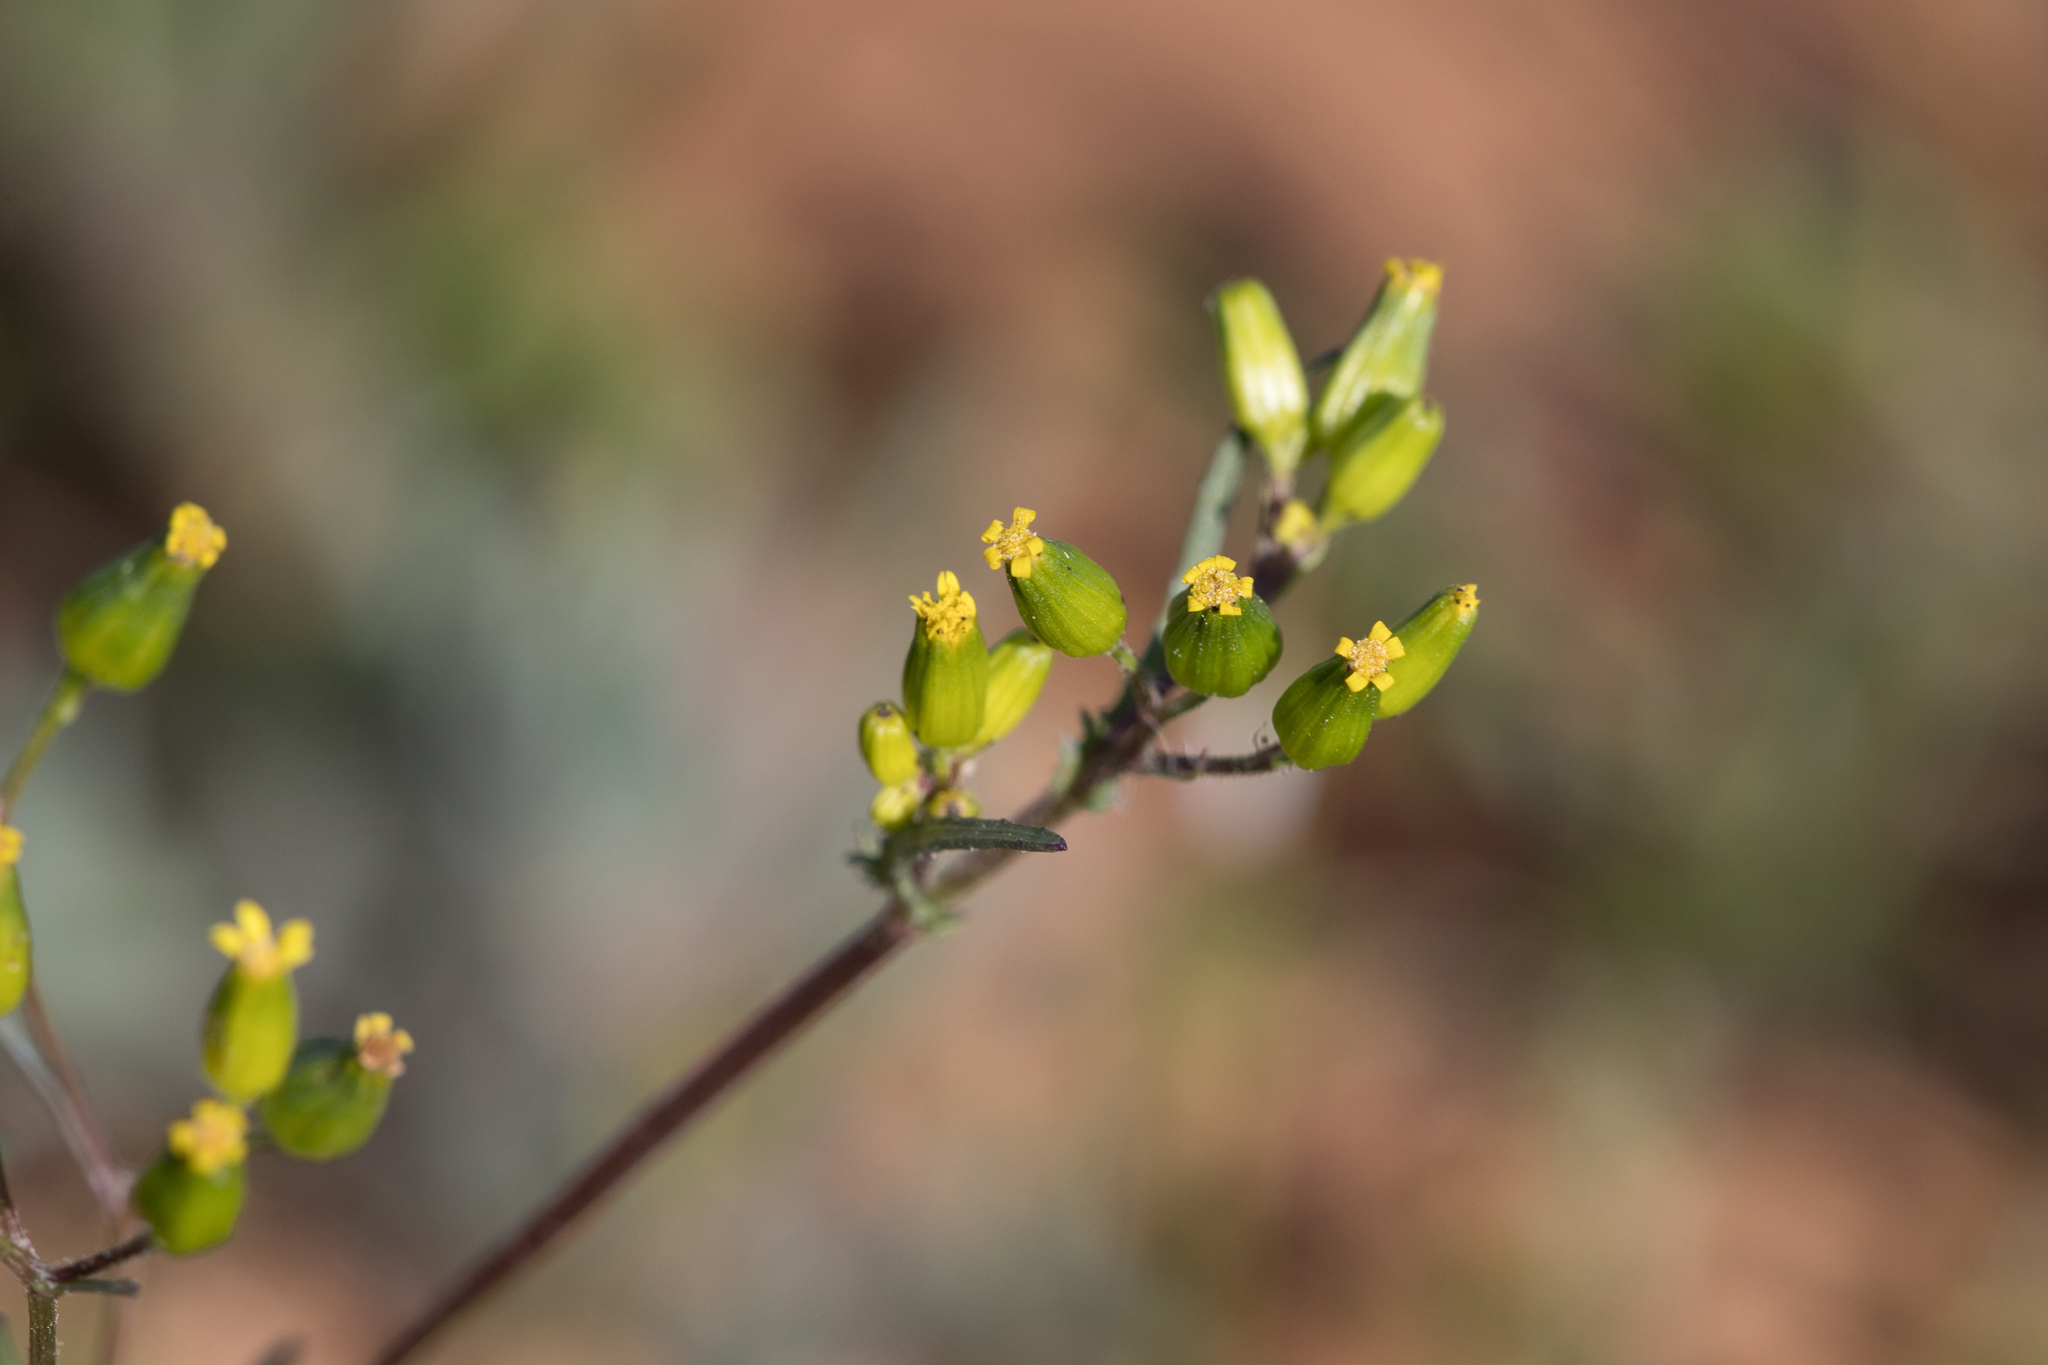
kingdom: Plantae
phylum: Tracheophyta
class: Magnoliopsida
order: Asterales
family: Asteraceae
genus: Senecio
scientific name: Senecio glossanthus
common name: Slender groundsel
